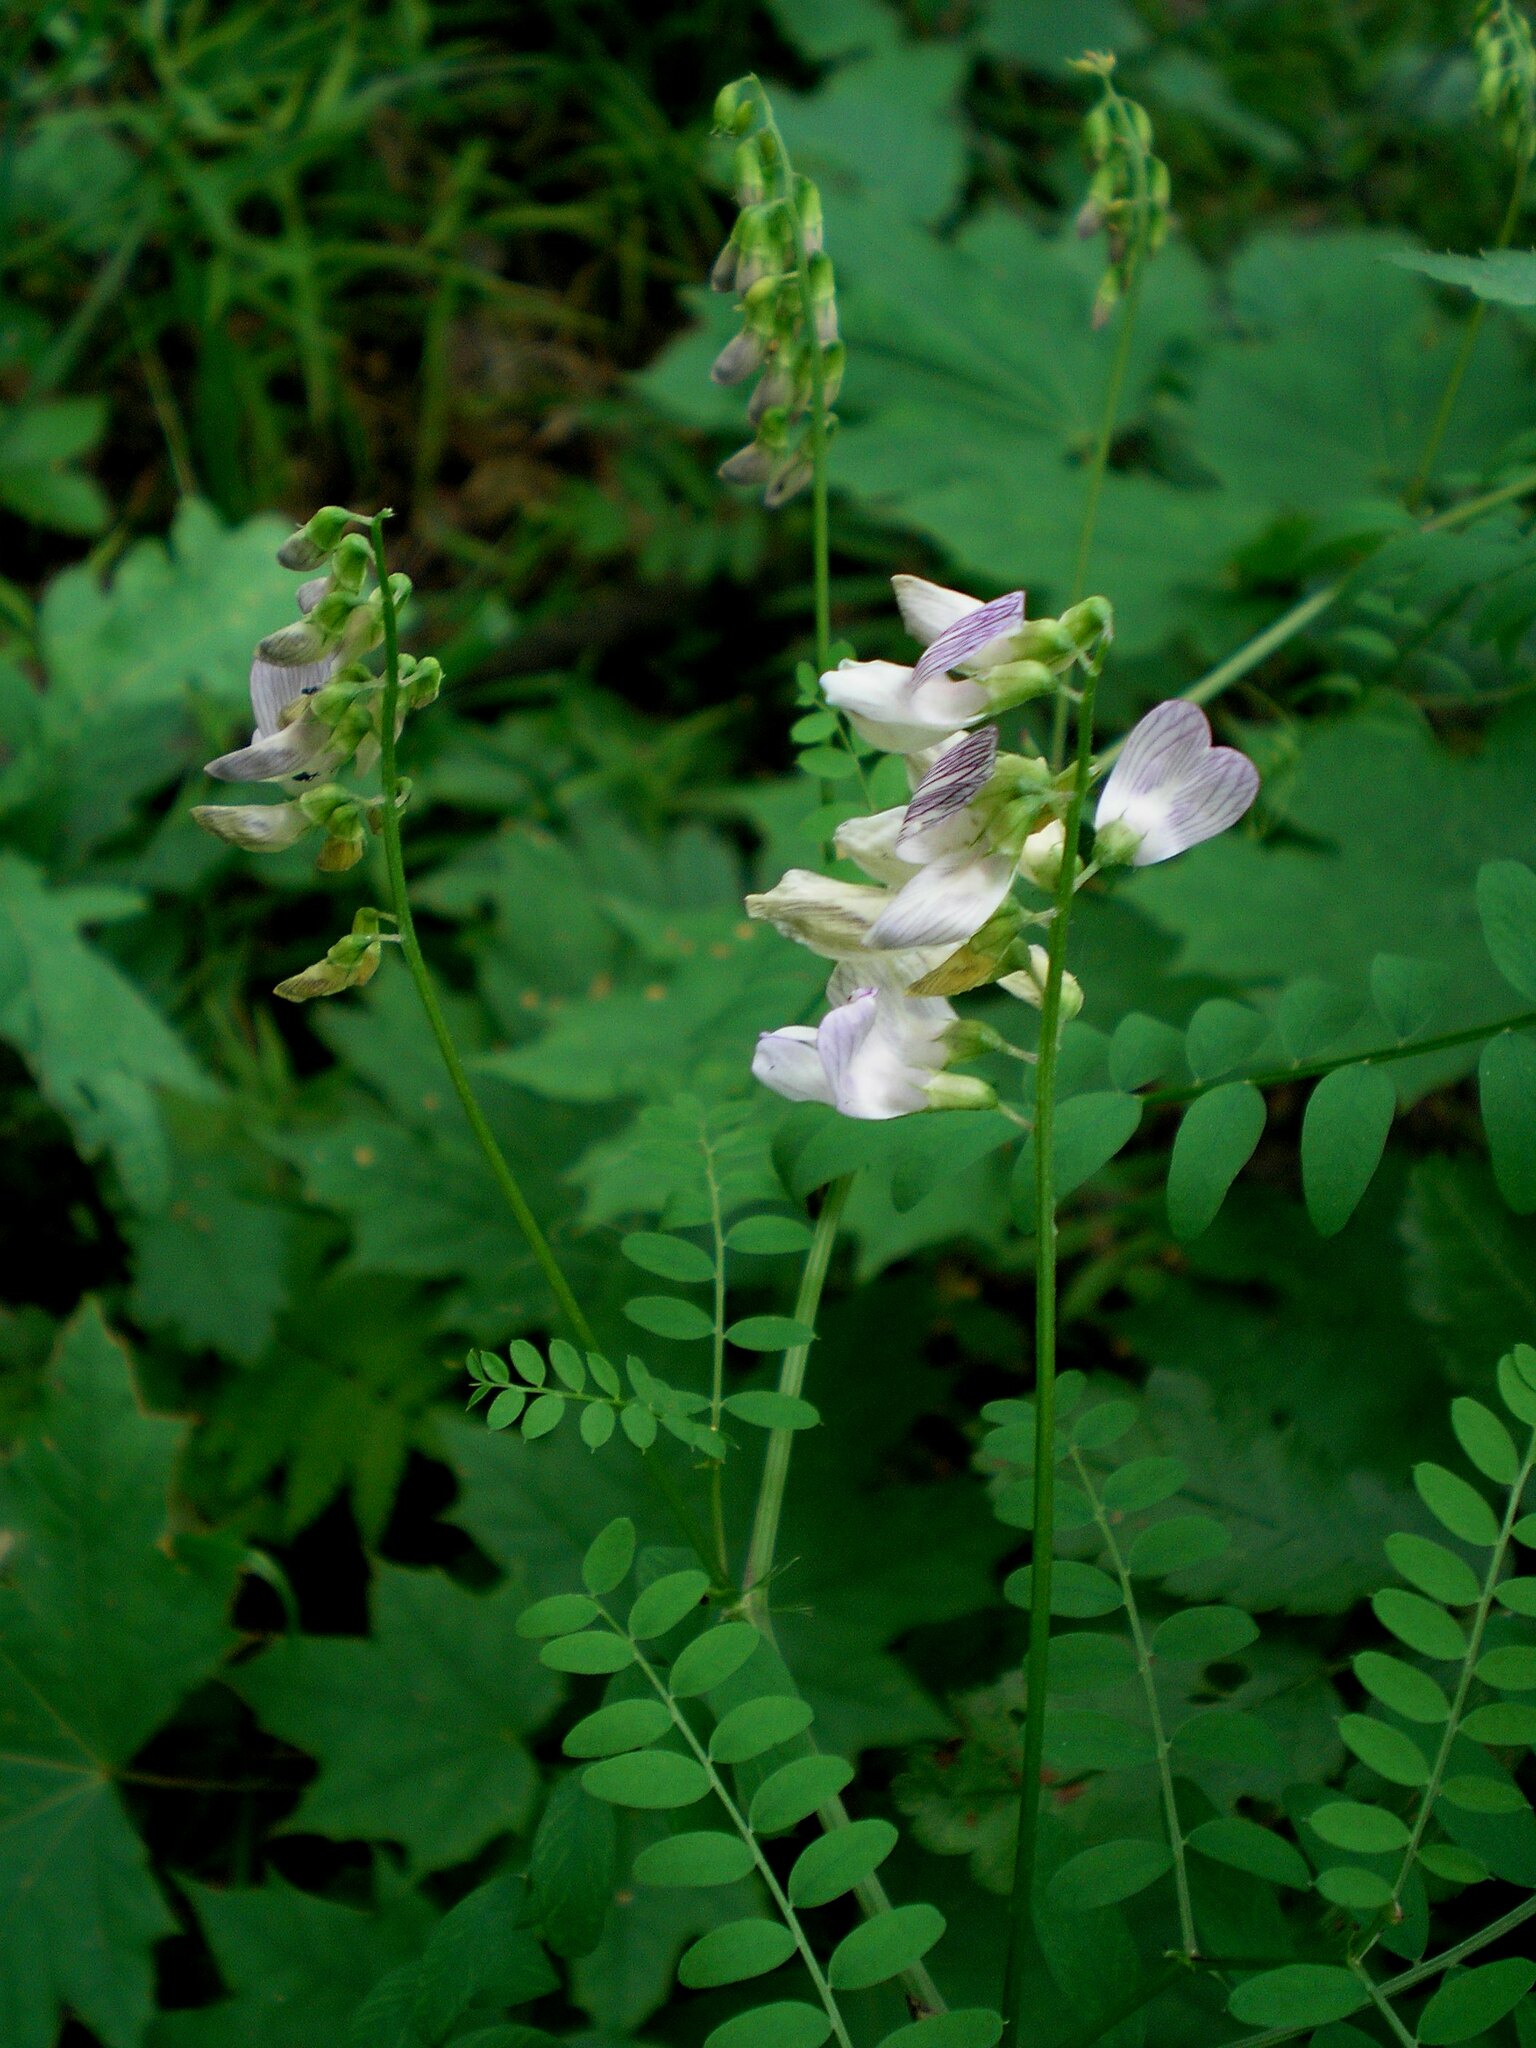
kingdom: Plantae
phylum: Tracheophyta
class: Magnoliopsida
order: Fabales
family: Fabaceae
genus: Vicia
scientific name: Vicia sylvatica
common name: Wood vetch
